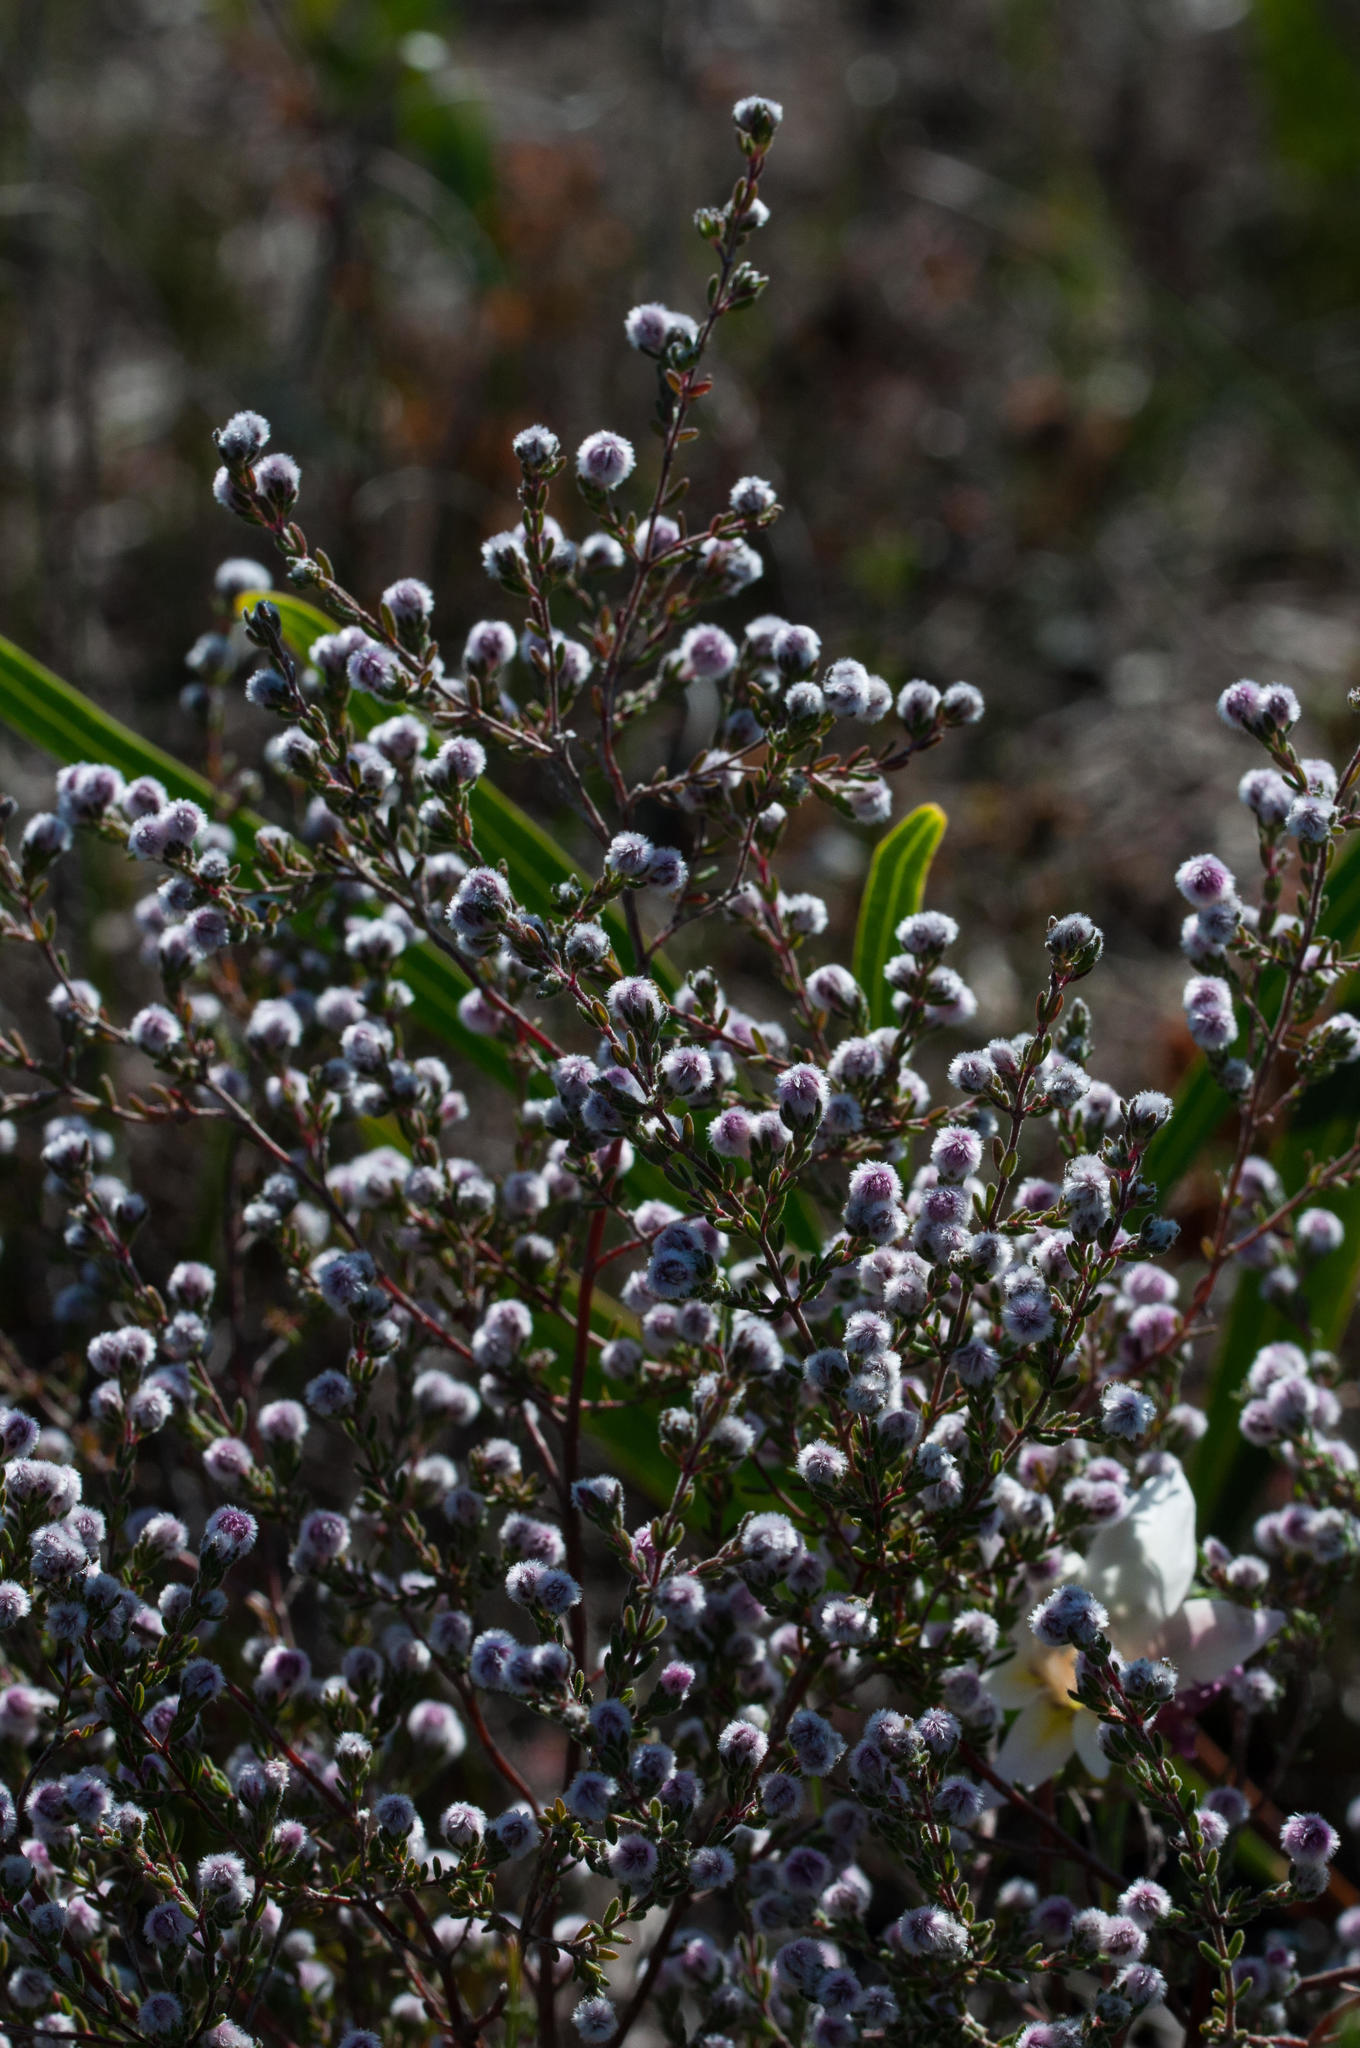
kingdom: Plantae
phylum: Tracheophyta
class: Magnoliopsida
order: Ericales
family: Ericaceae
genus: Erica
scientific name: Erica capitata
